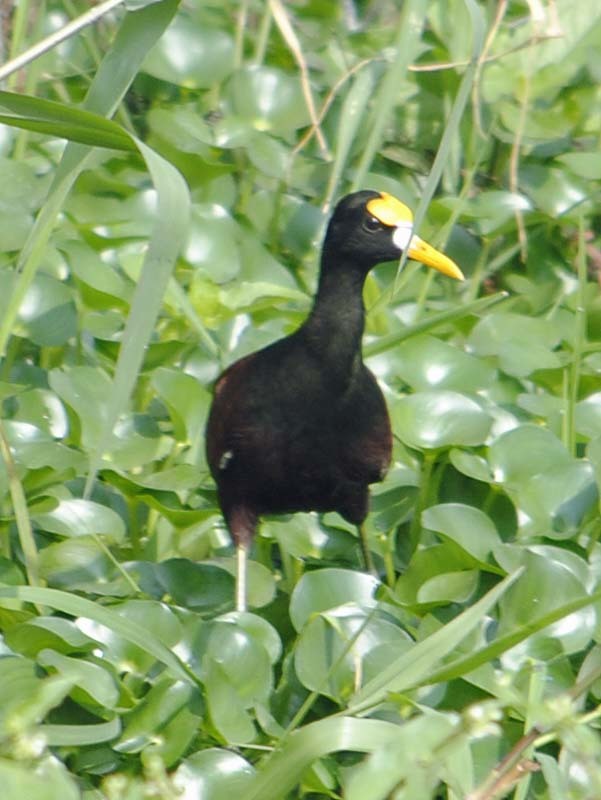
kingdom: Animalia
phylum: Chordata
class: Aves
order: Charadriiformes
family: Jacanidae
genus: Jacana
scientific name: Jacana spinosa
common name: Northern jacana
